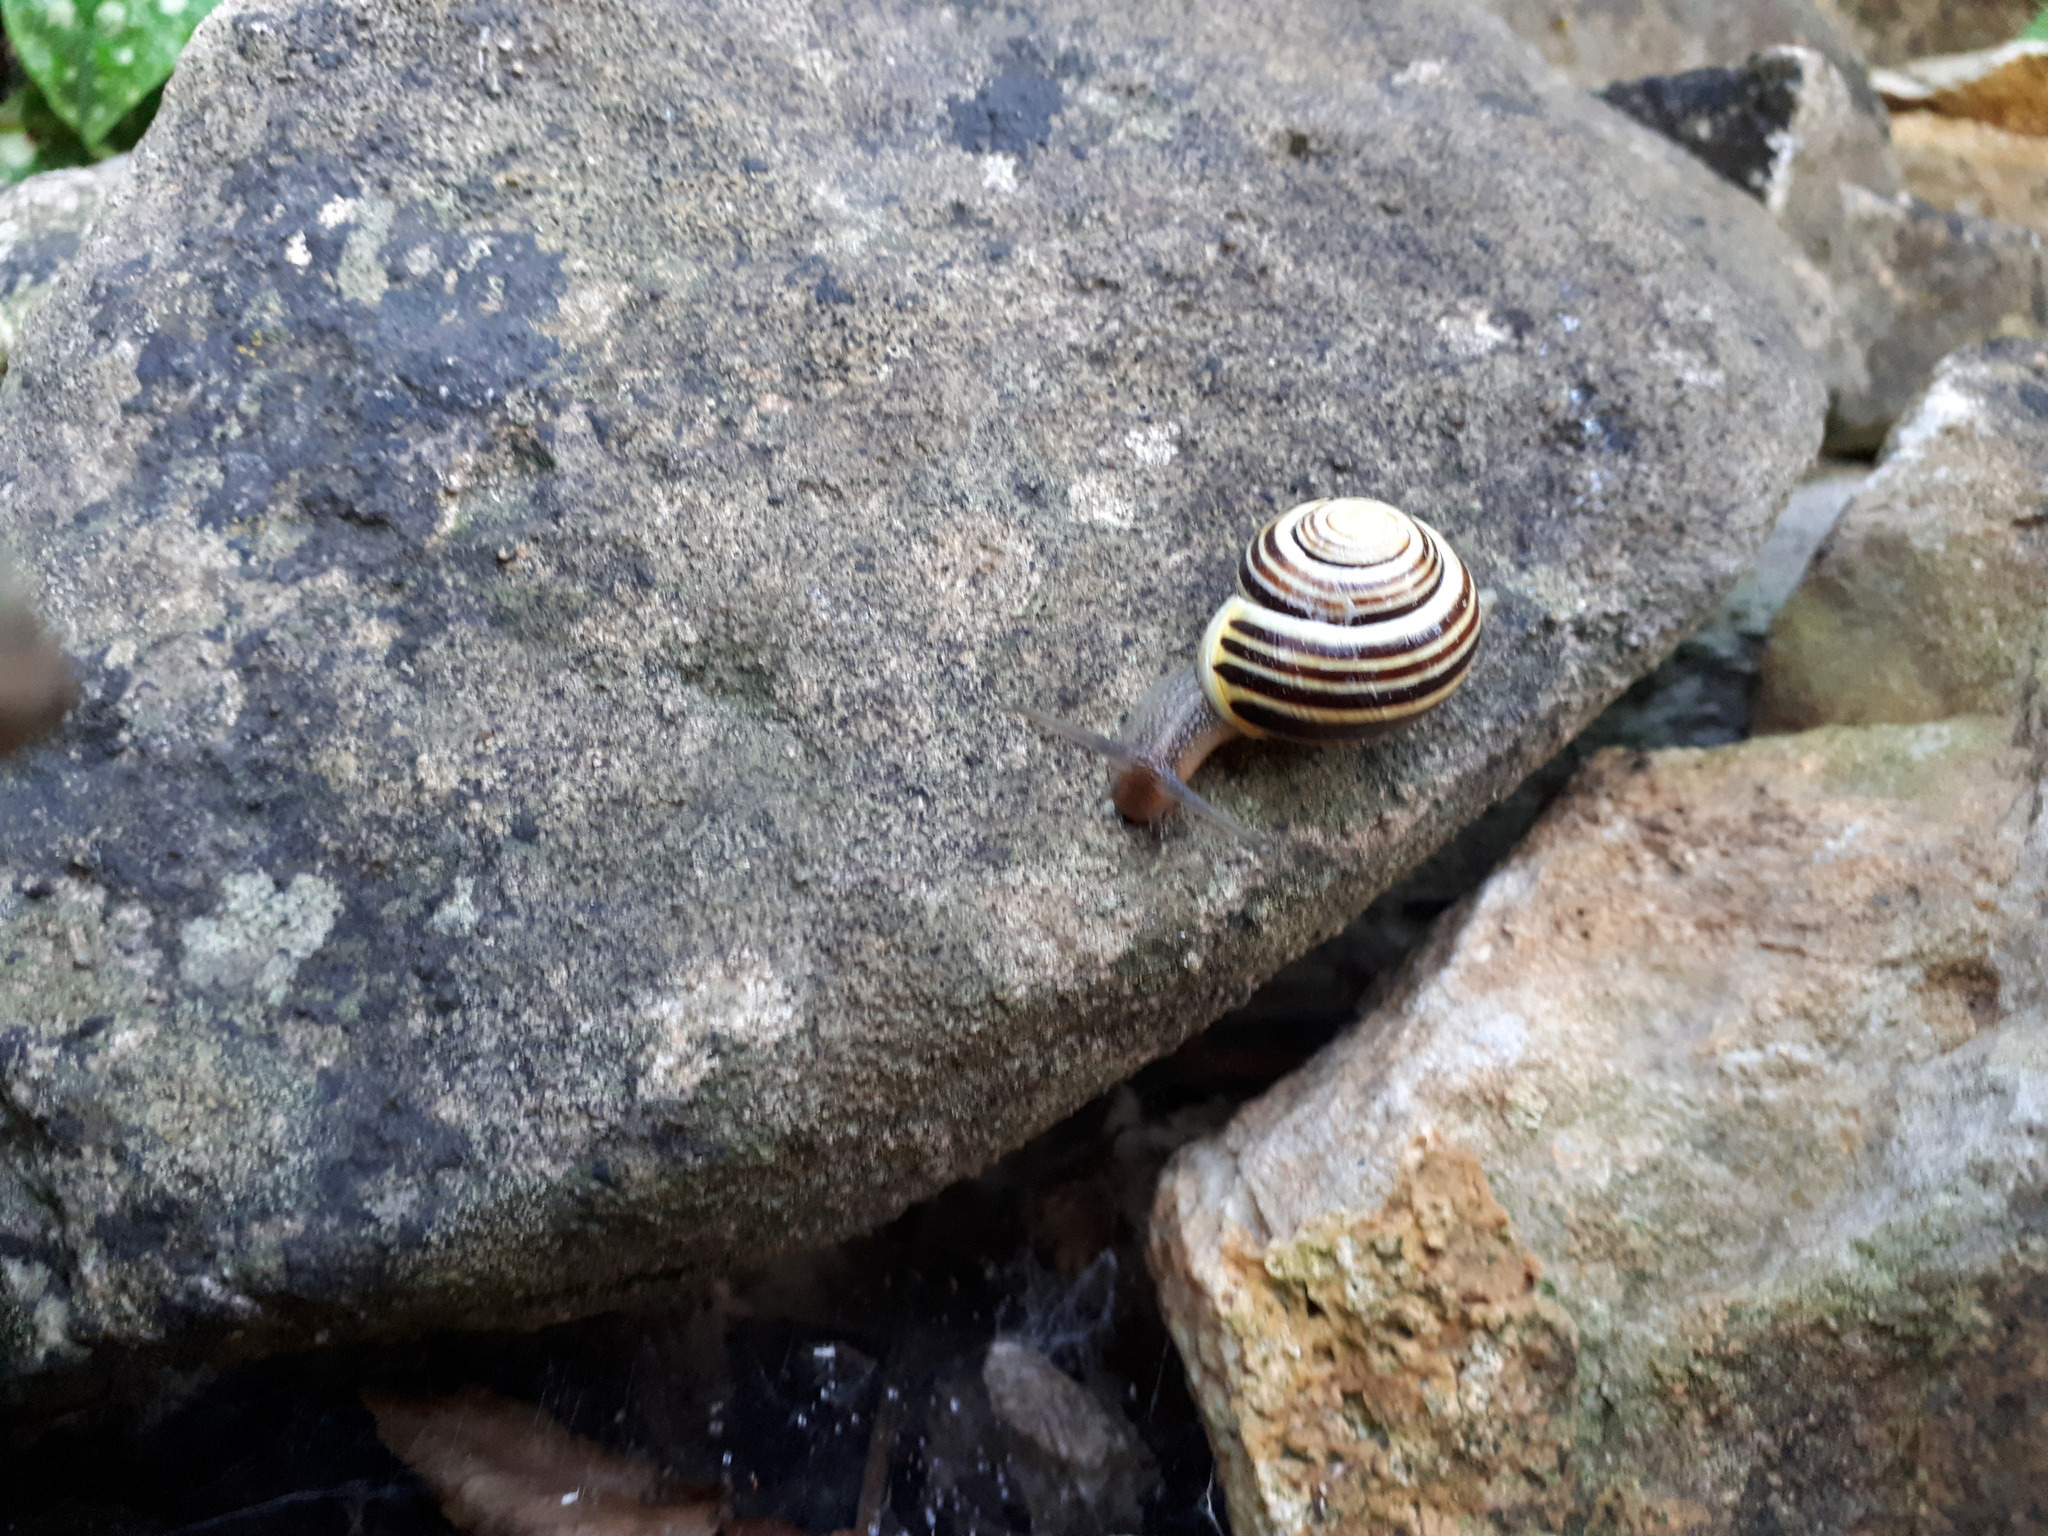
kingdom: Animalia
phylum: Mollusca
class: Gastropoda
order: Stylommatophora
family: Helicidae
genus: Cepaea
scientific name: Cepaea hortensis
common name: White-lip gardensnail
